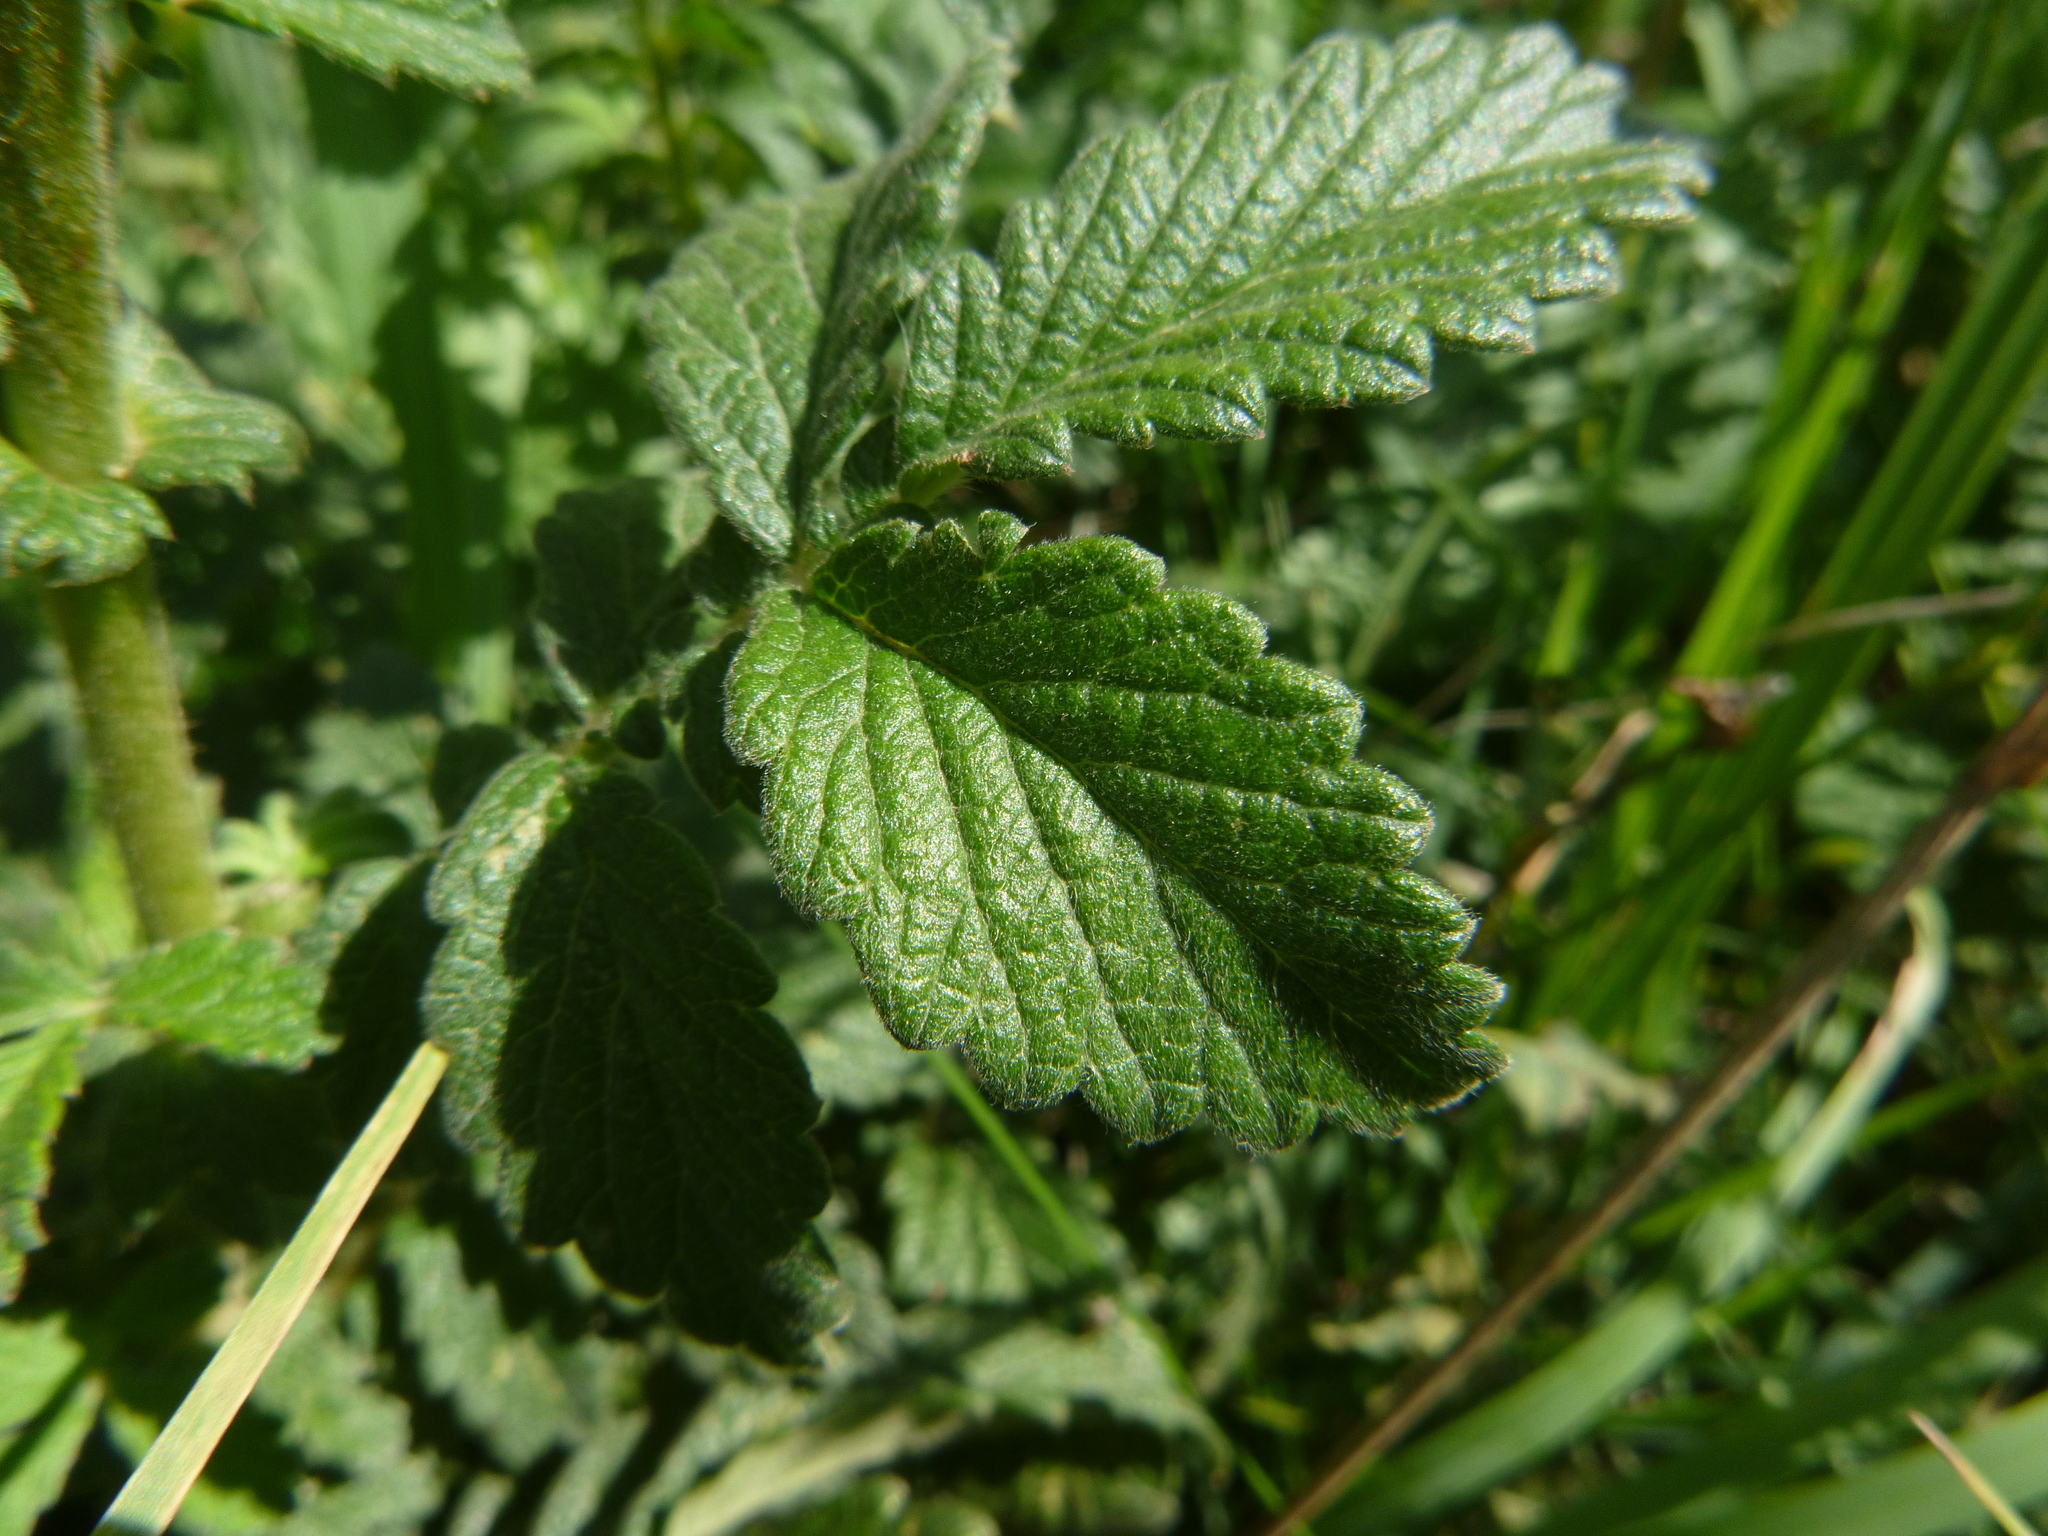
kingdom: Plantae
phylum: Tracheophyta
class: Magnoliopsida
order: Rosales
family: Rosaceae
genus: Agrimonia
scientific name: Agrimonia eupatoria
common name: Agrimony
